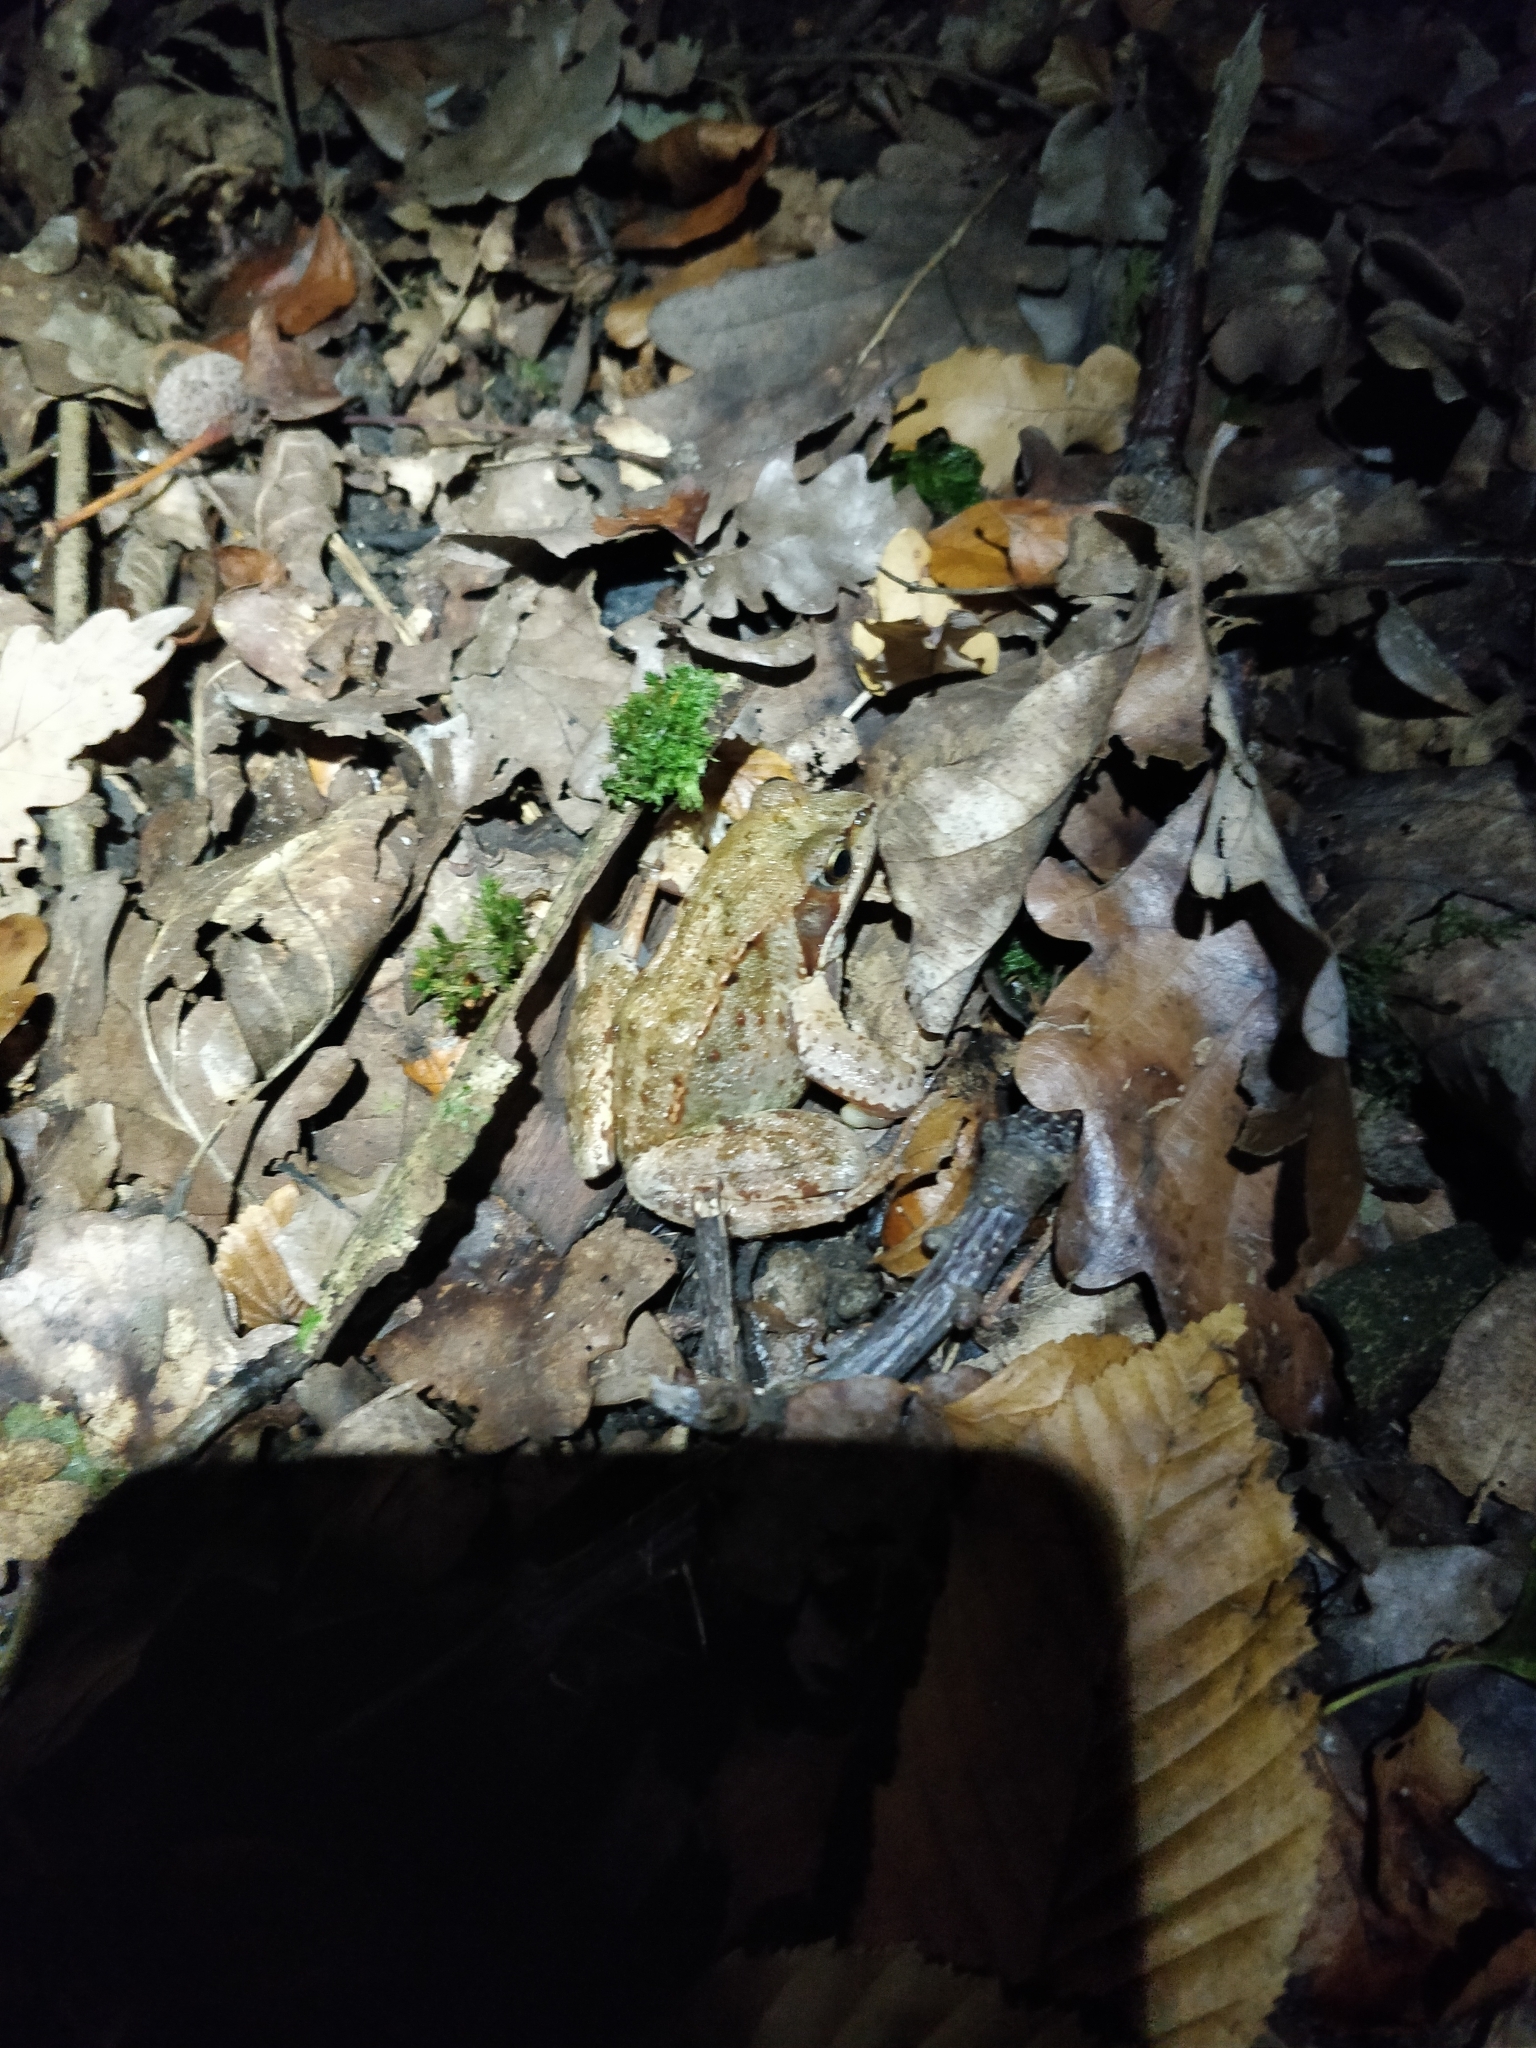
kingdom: Animalia
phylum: Chordata
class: Amphibia
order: Anura
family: Ranidae
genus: Rana
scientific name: Rana temporaria
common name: Common frog
